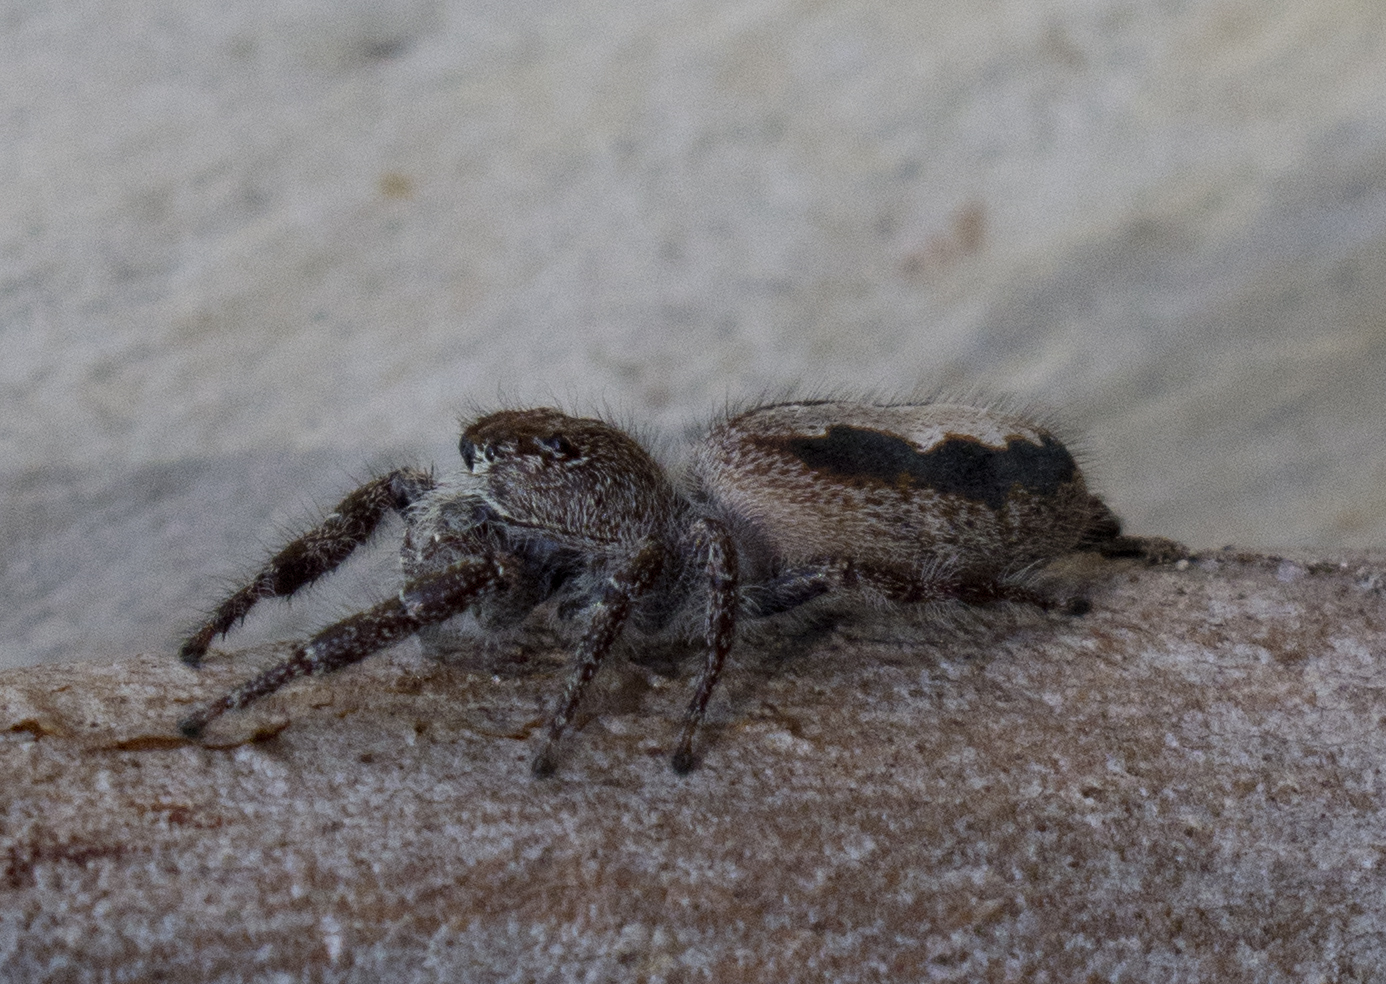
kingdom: Animalia
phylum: Arthropoda
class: Arachnida
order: Araneae
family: Salticidae
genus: Sandalodes
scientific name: Sandalodes superbus
